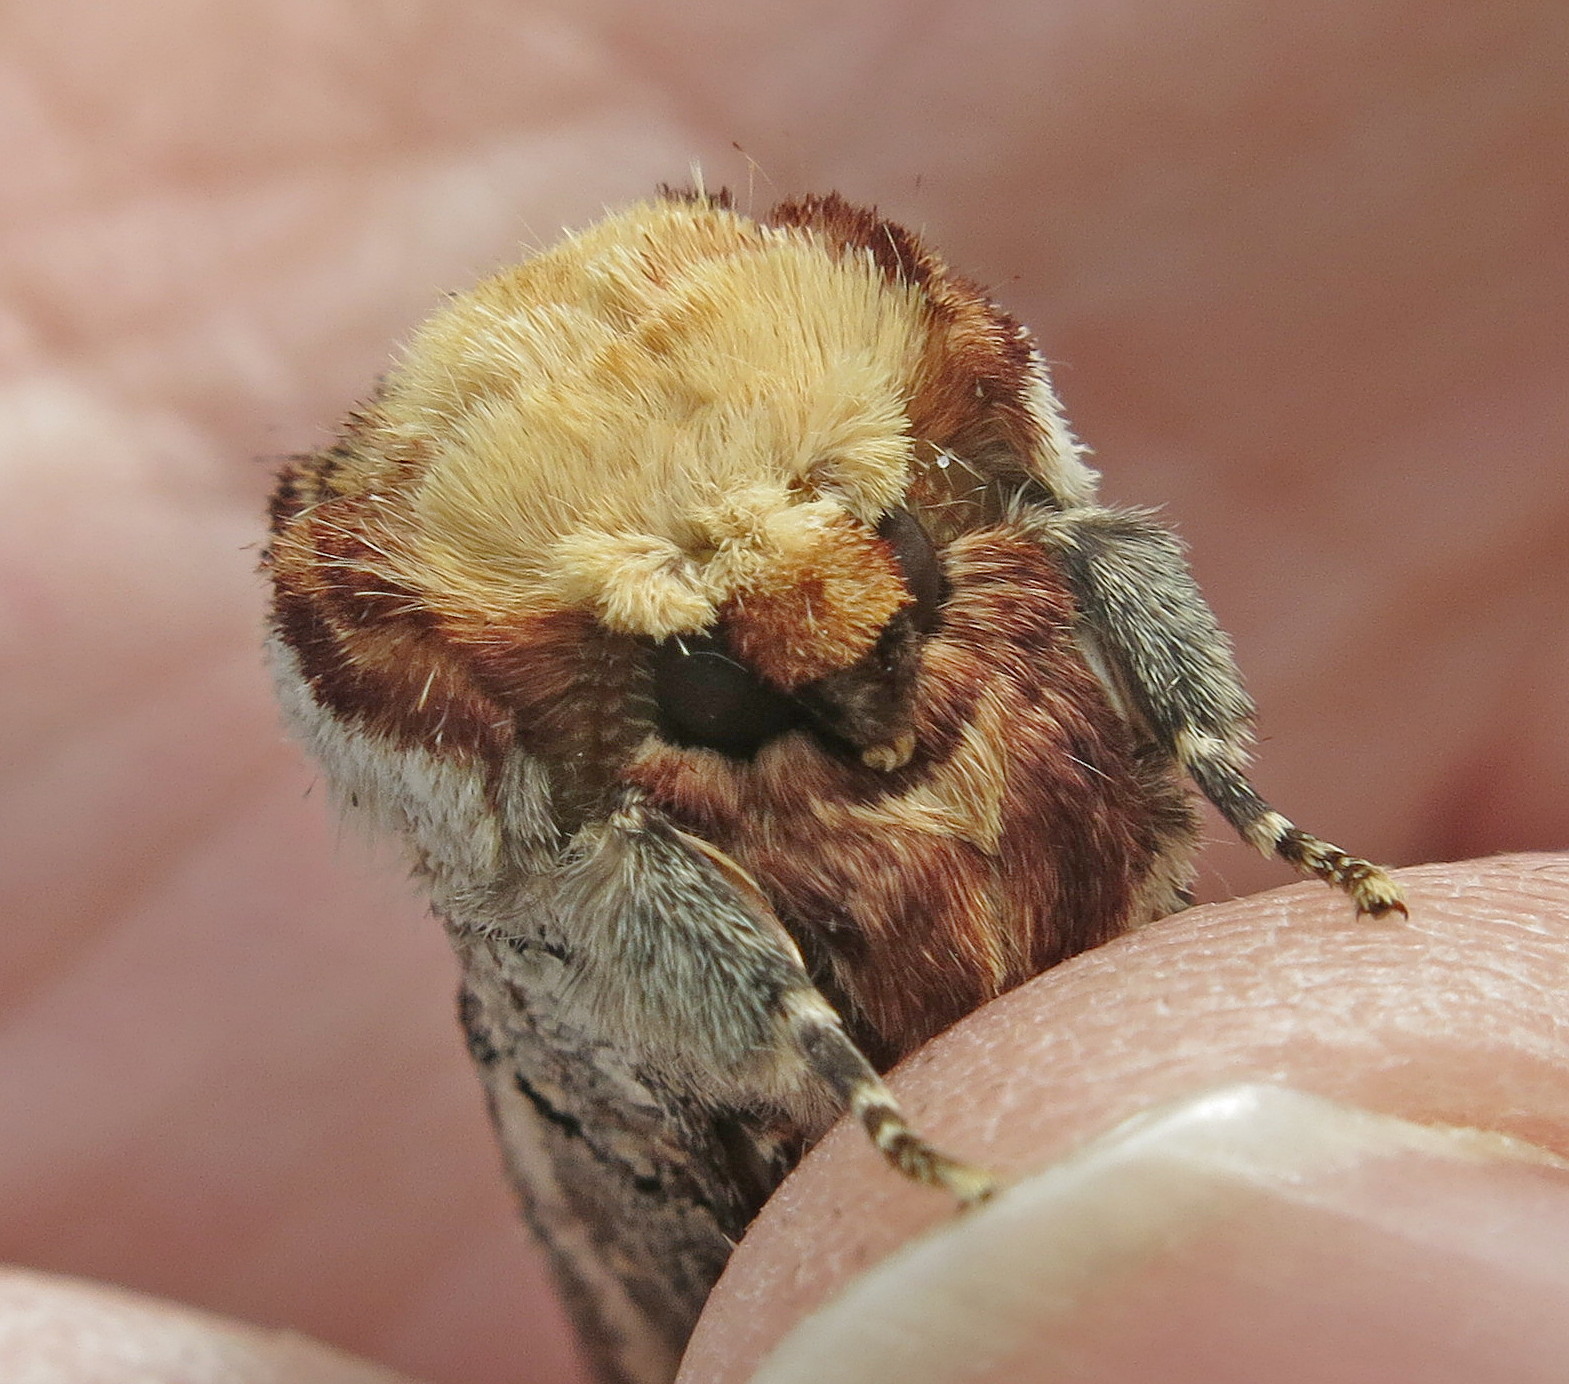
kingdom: Animalia
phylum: Arthropoda
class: Insecta
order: Lepidoptera
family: Notodontidae
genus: Phalera
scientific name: Phalera bucephala
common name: Buff-tip
